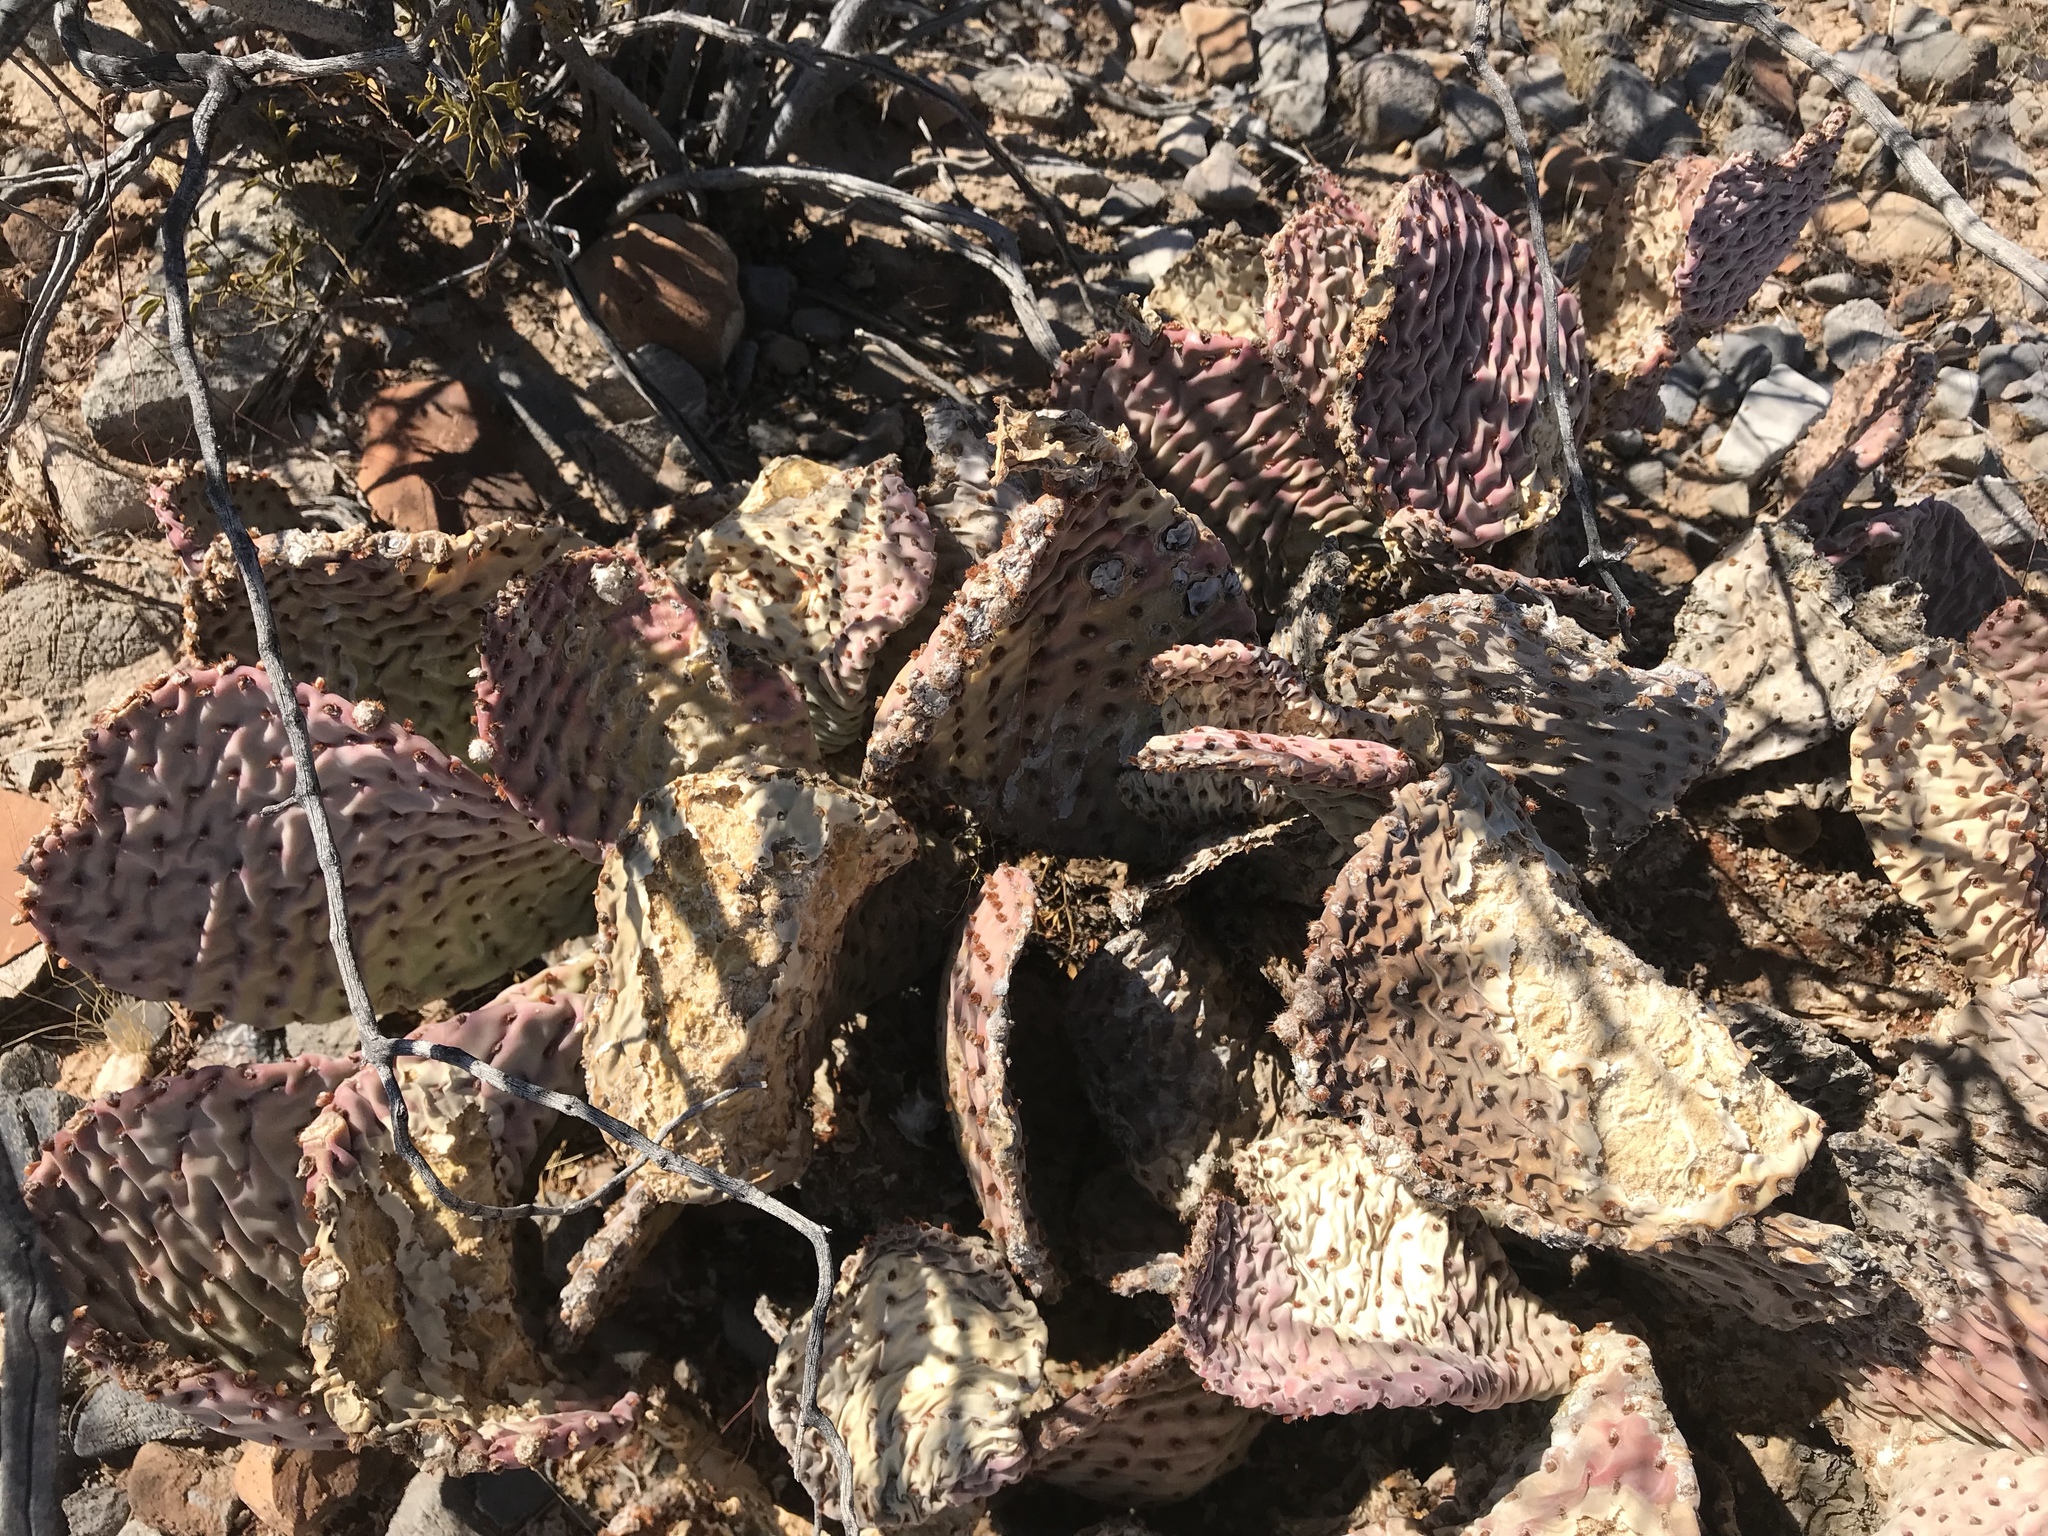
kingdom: Plantae
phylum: Tracheophyta
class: Magnoliopsida
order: Caryophyllales
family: Cactaceae
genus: Opuntia
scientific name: Opuntia basilaris
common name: Beavertail prickly-pear
